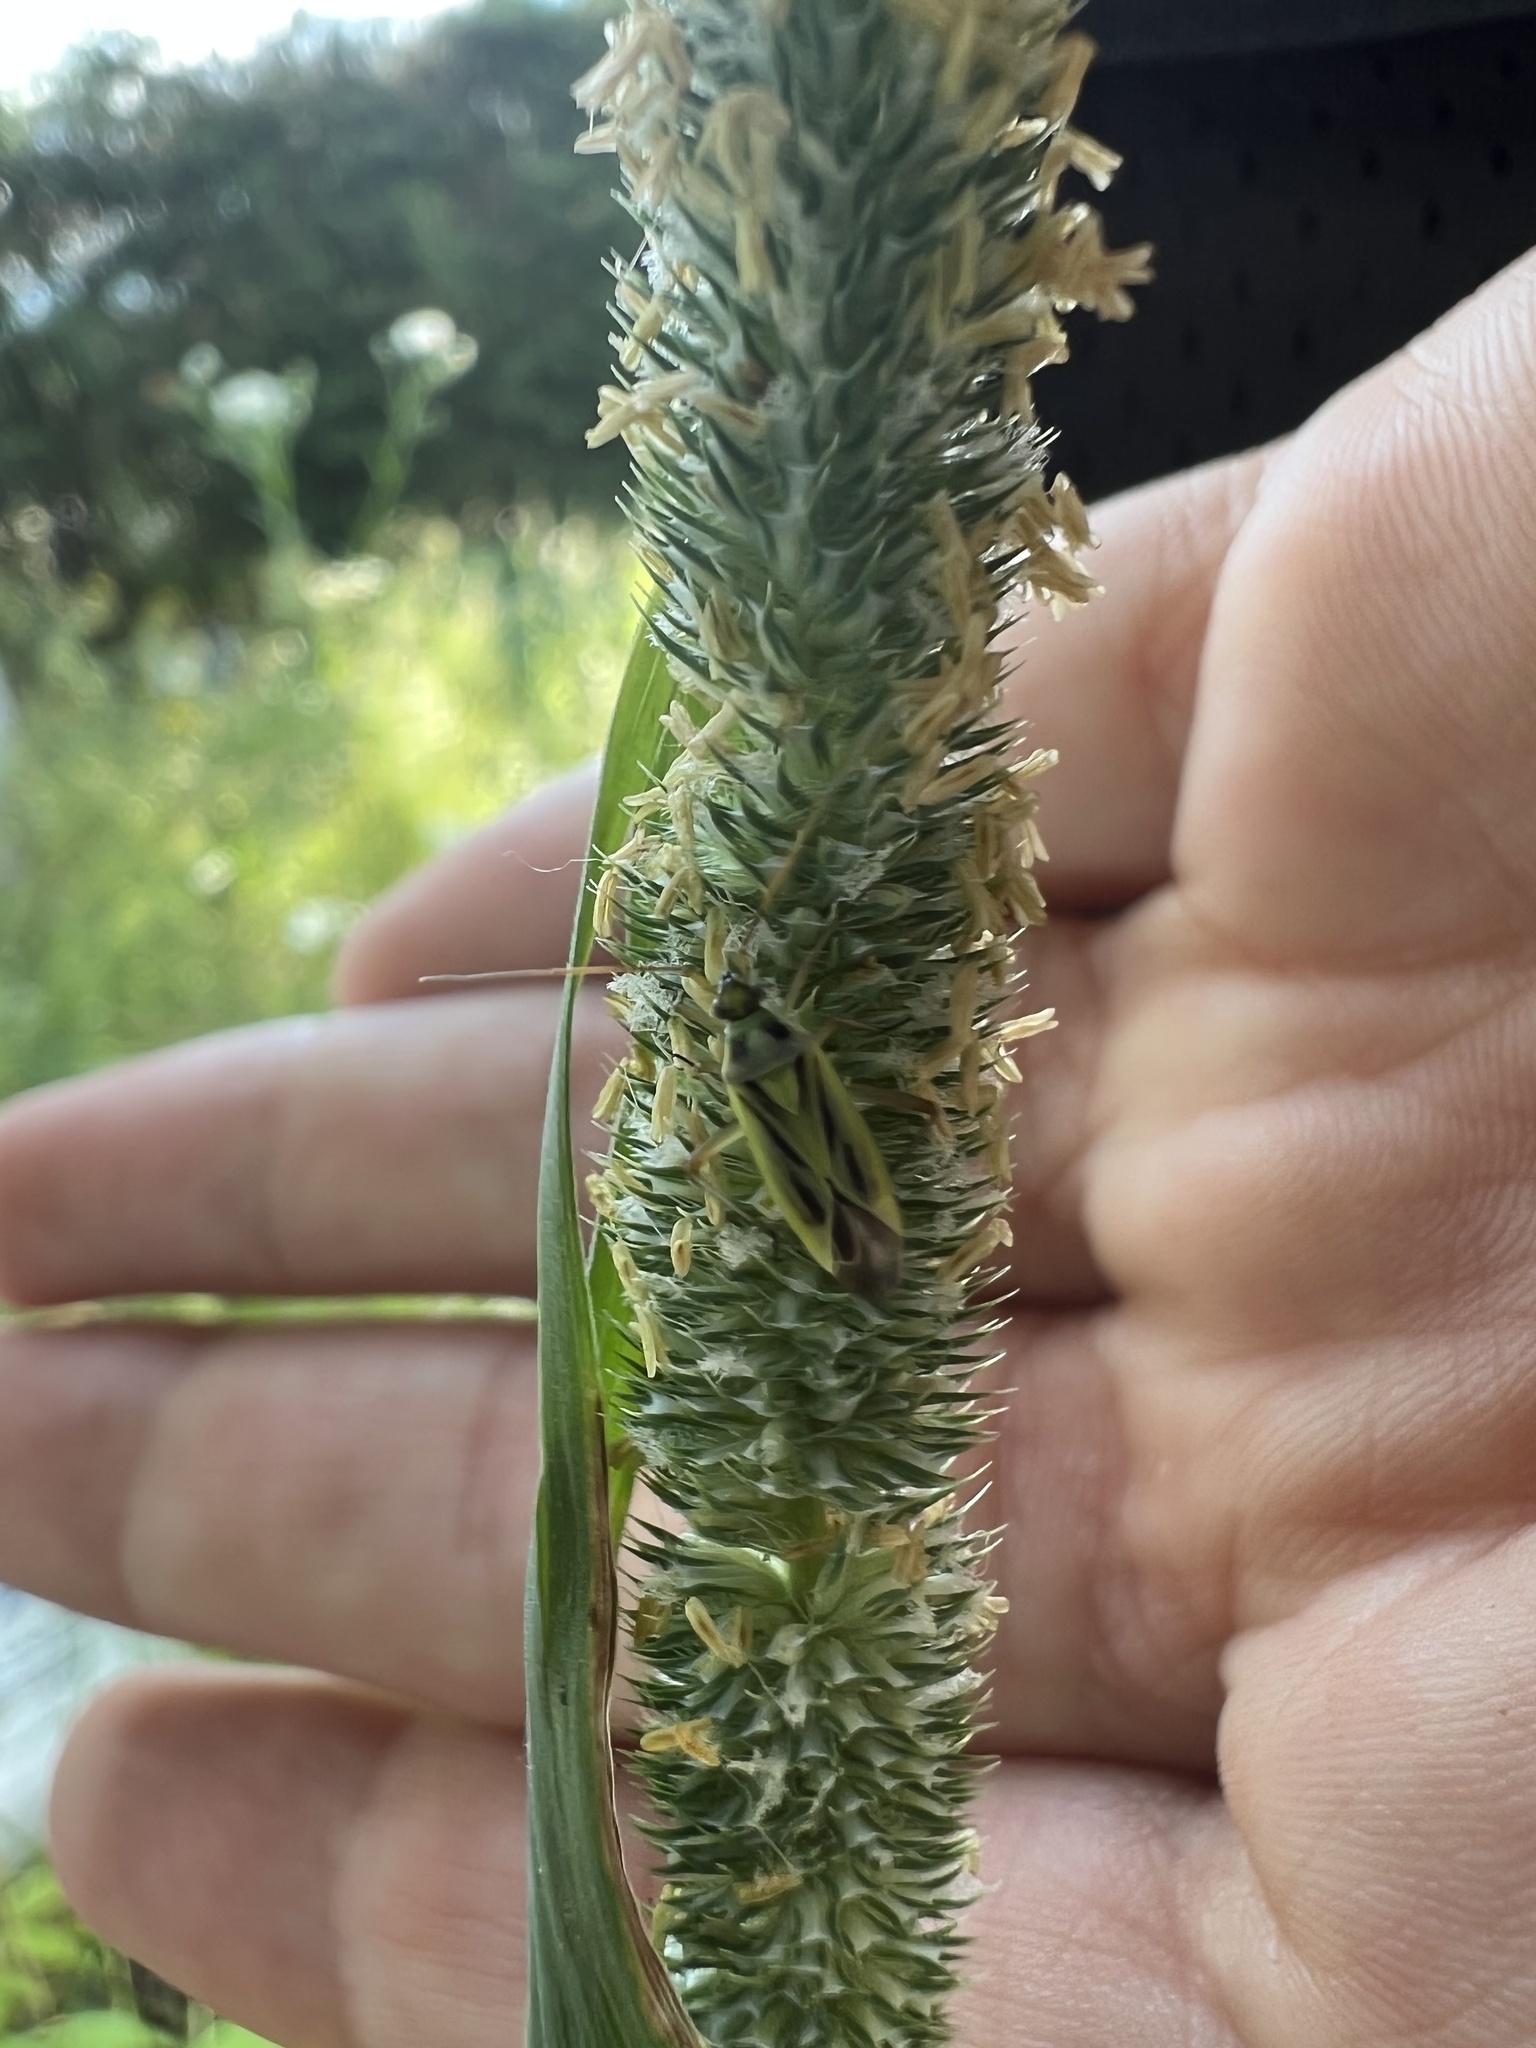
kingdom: Animalia
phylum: Arthropoda
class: Insecta
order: Hemiptera
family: Miridae
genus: Stenotus
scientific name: Stenotus binotatus
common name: Plant bug
